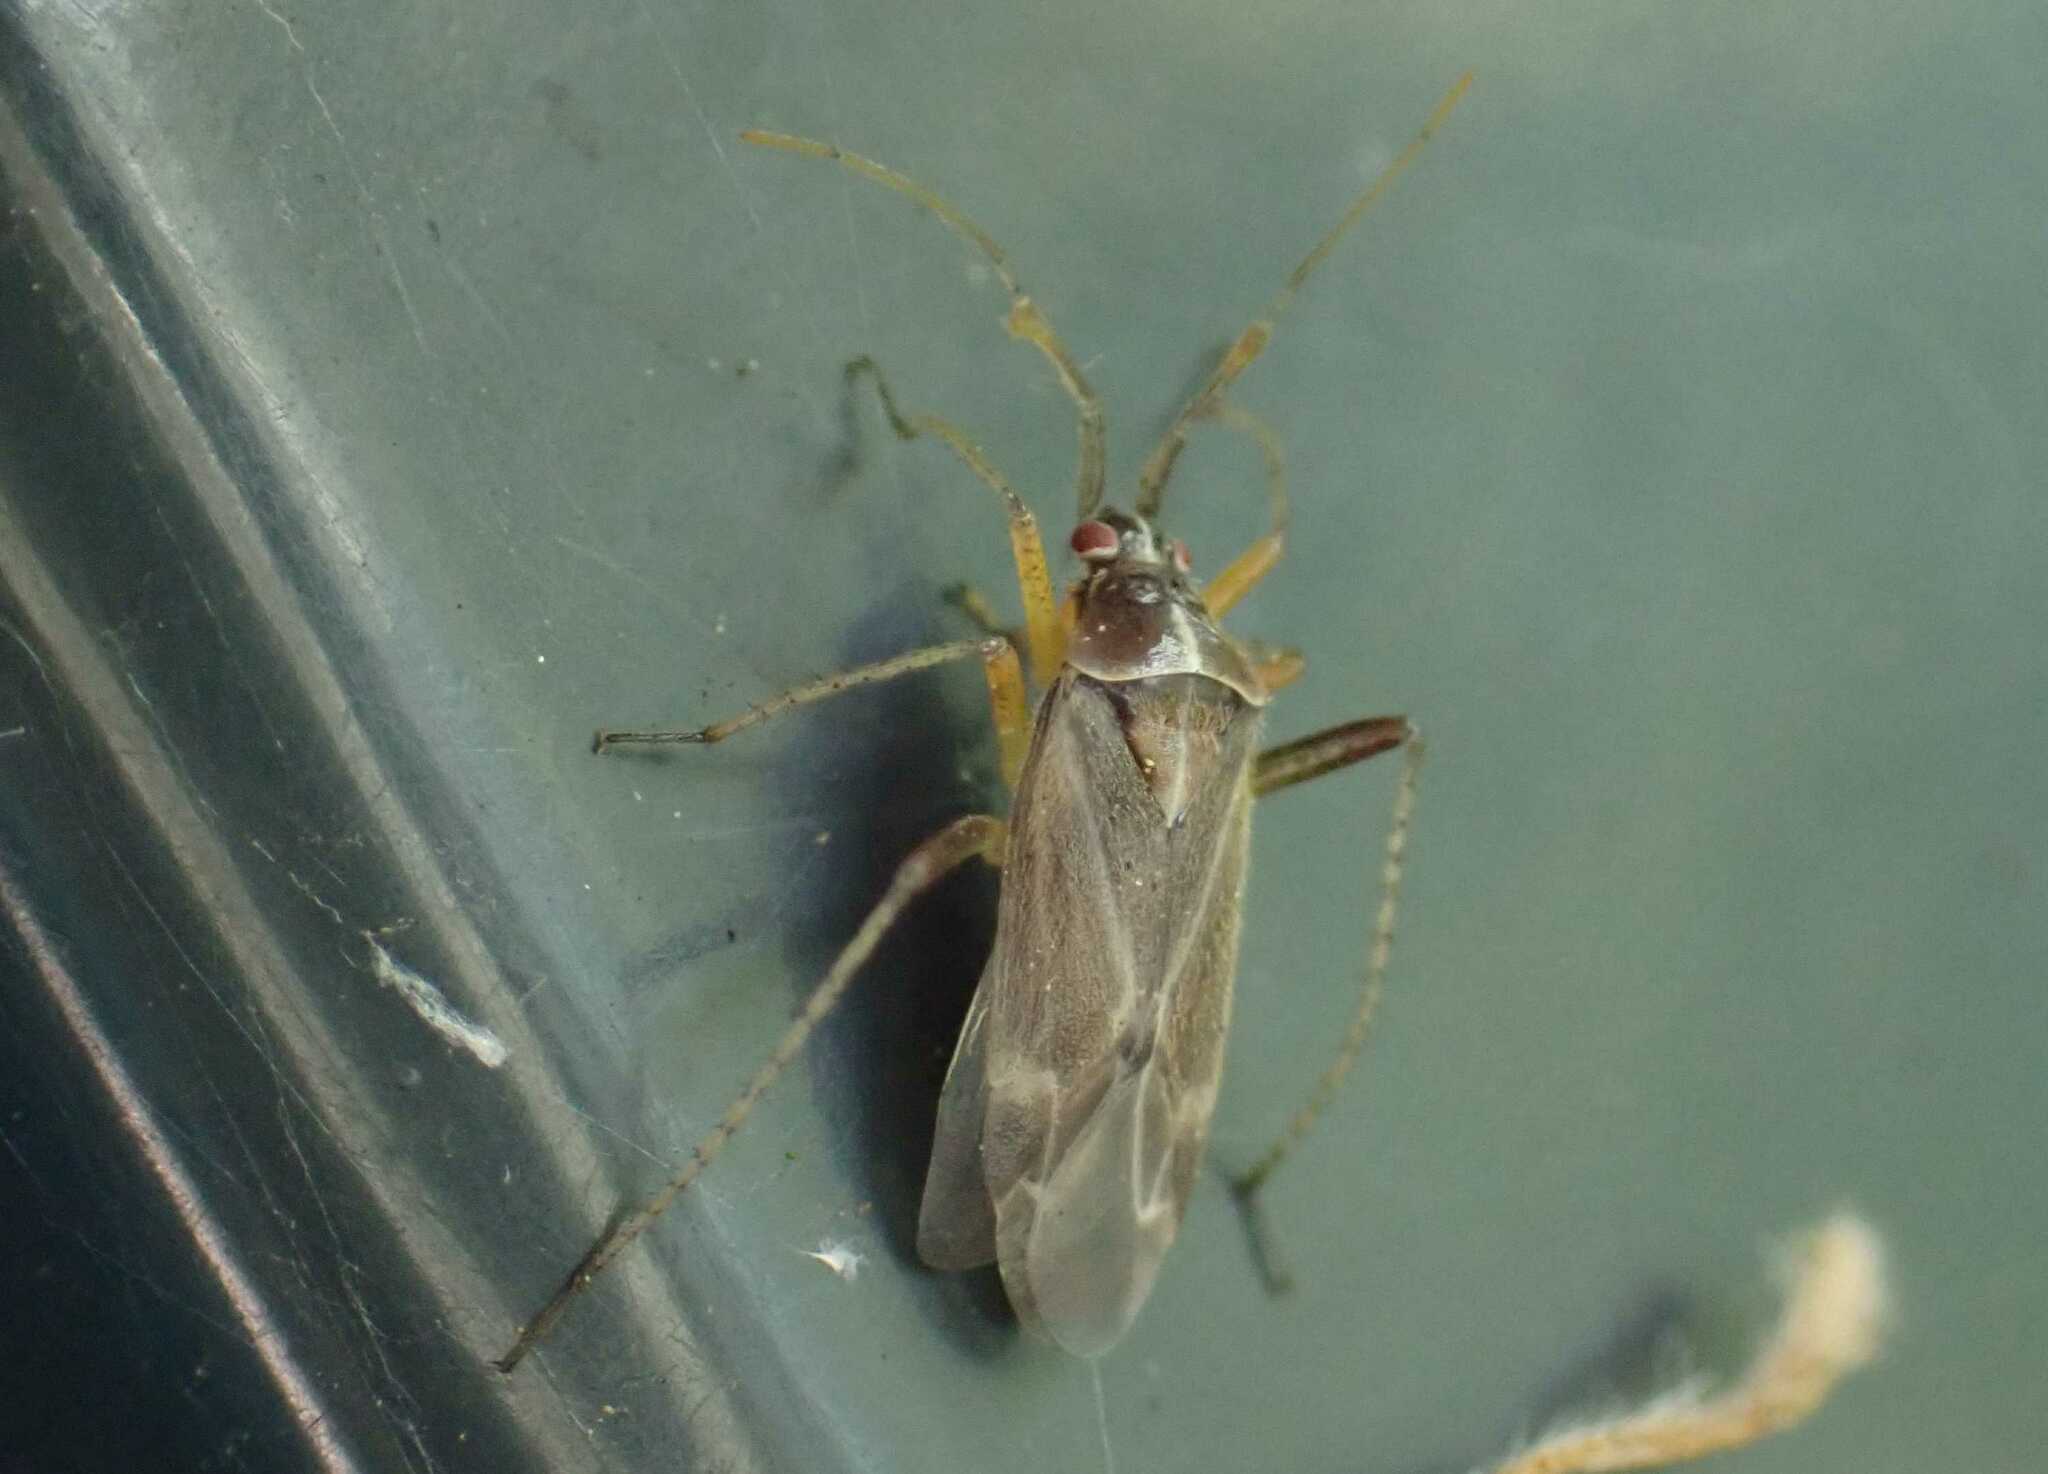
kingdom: Animalia
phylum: Arthropoda
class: Insecta
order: Hemiptera
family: Miridae
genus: Harpocera
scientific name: Harpocera thoracica
